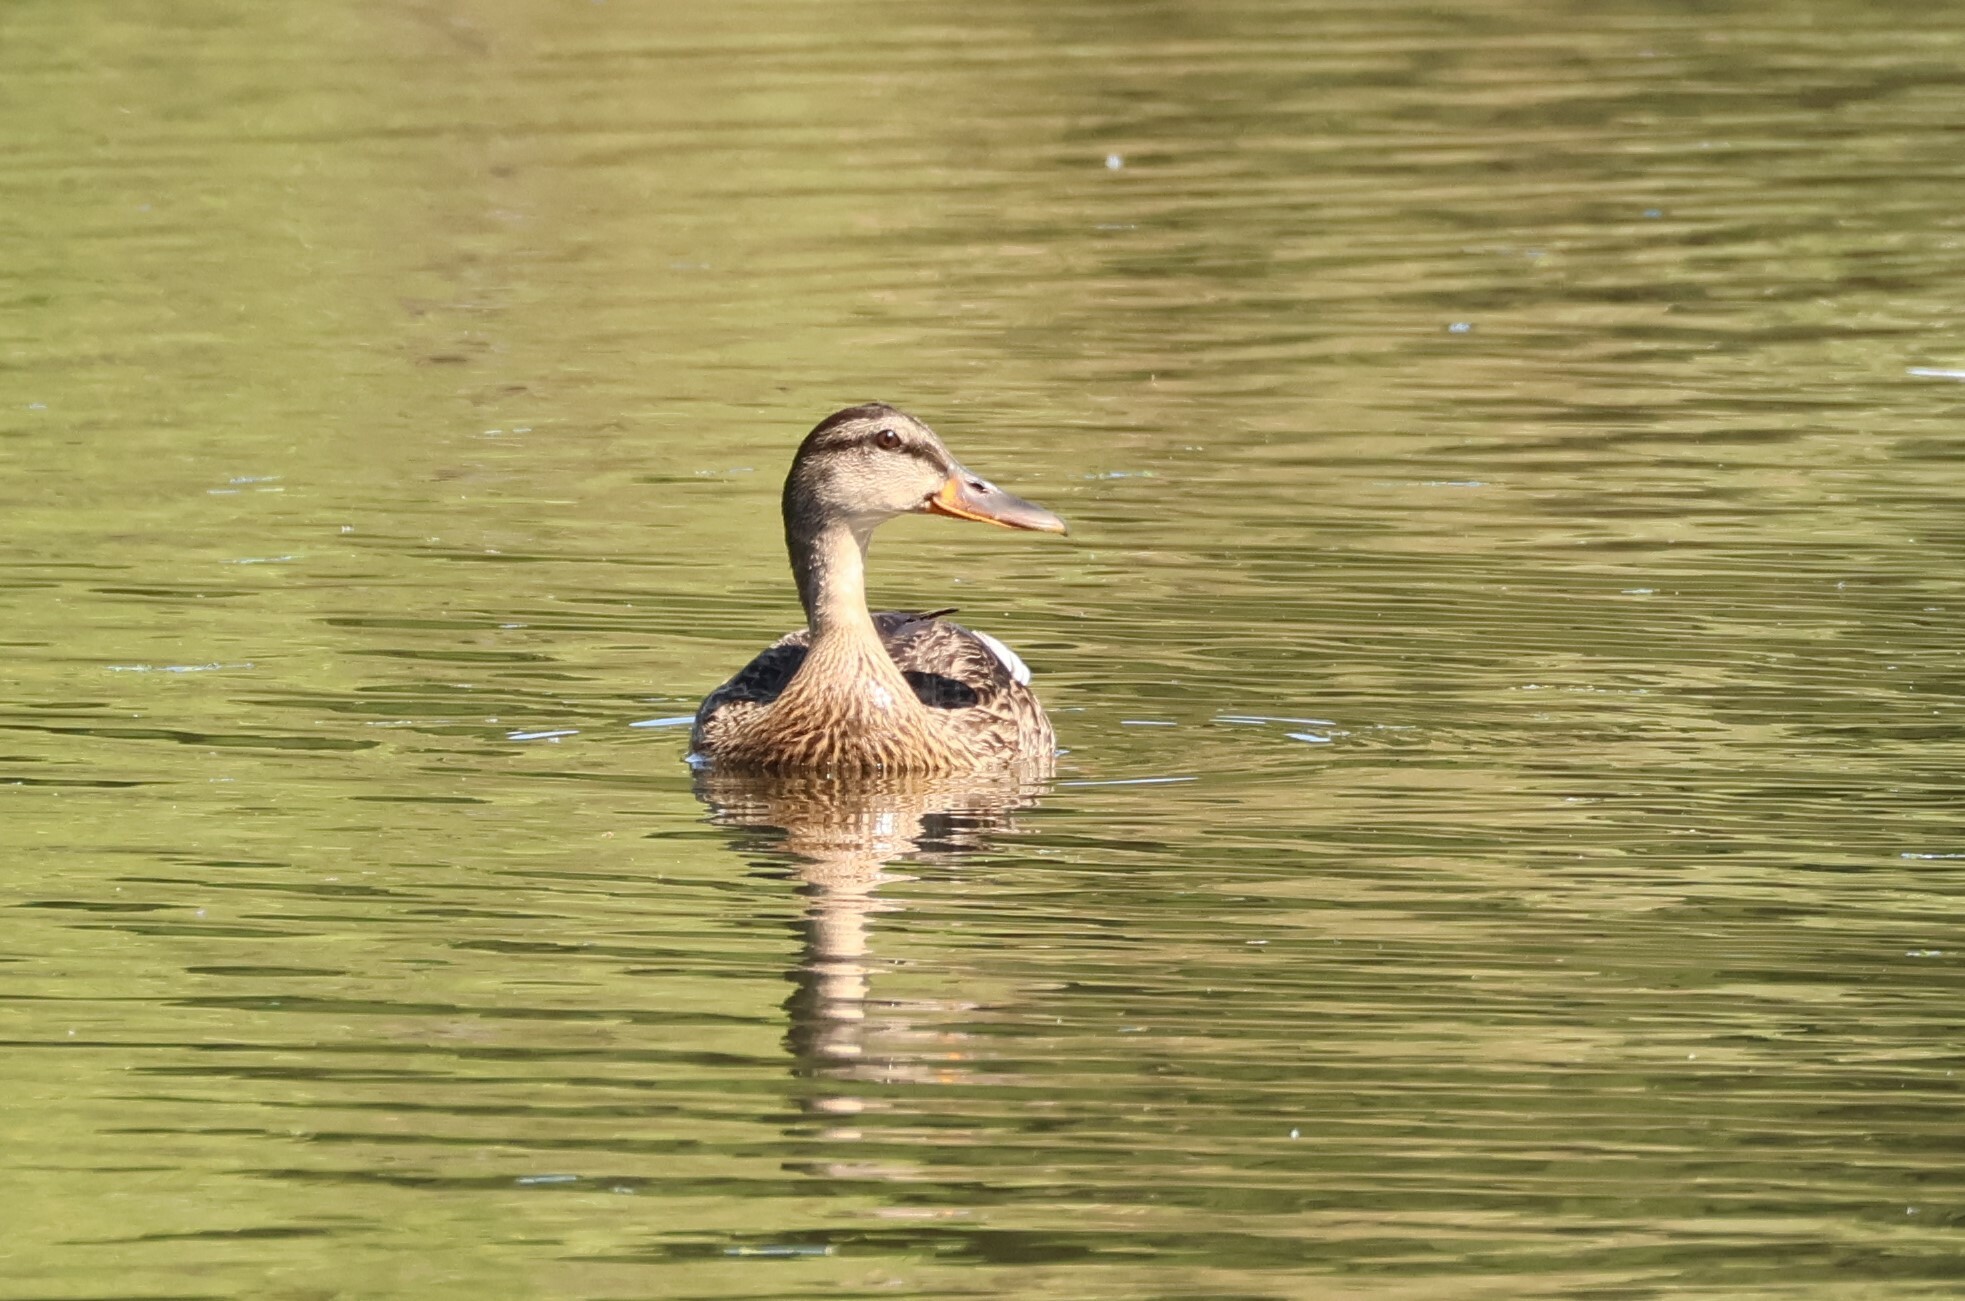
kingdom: Animalia
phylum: Chordata
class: Aves
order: Anseriformes
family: Anatidae
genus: Anas
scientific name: Anas platyrhynchos
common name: Mallard
